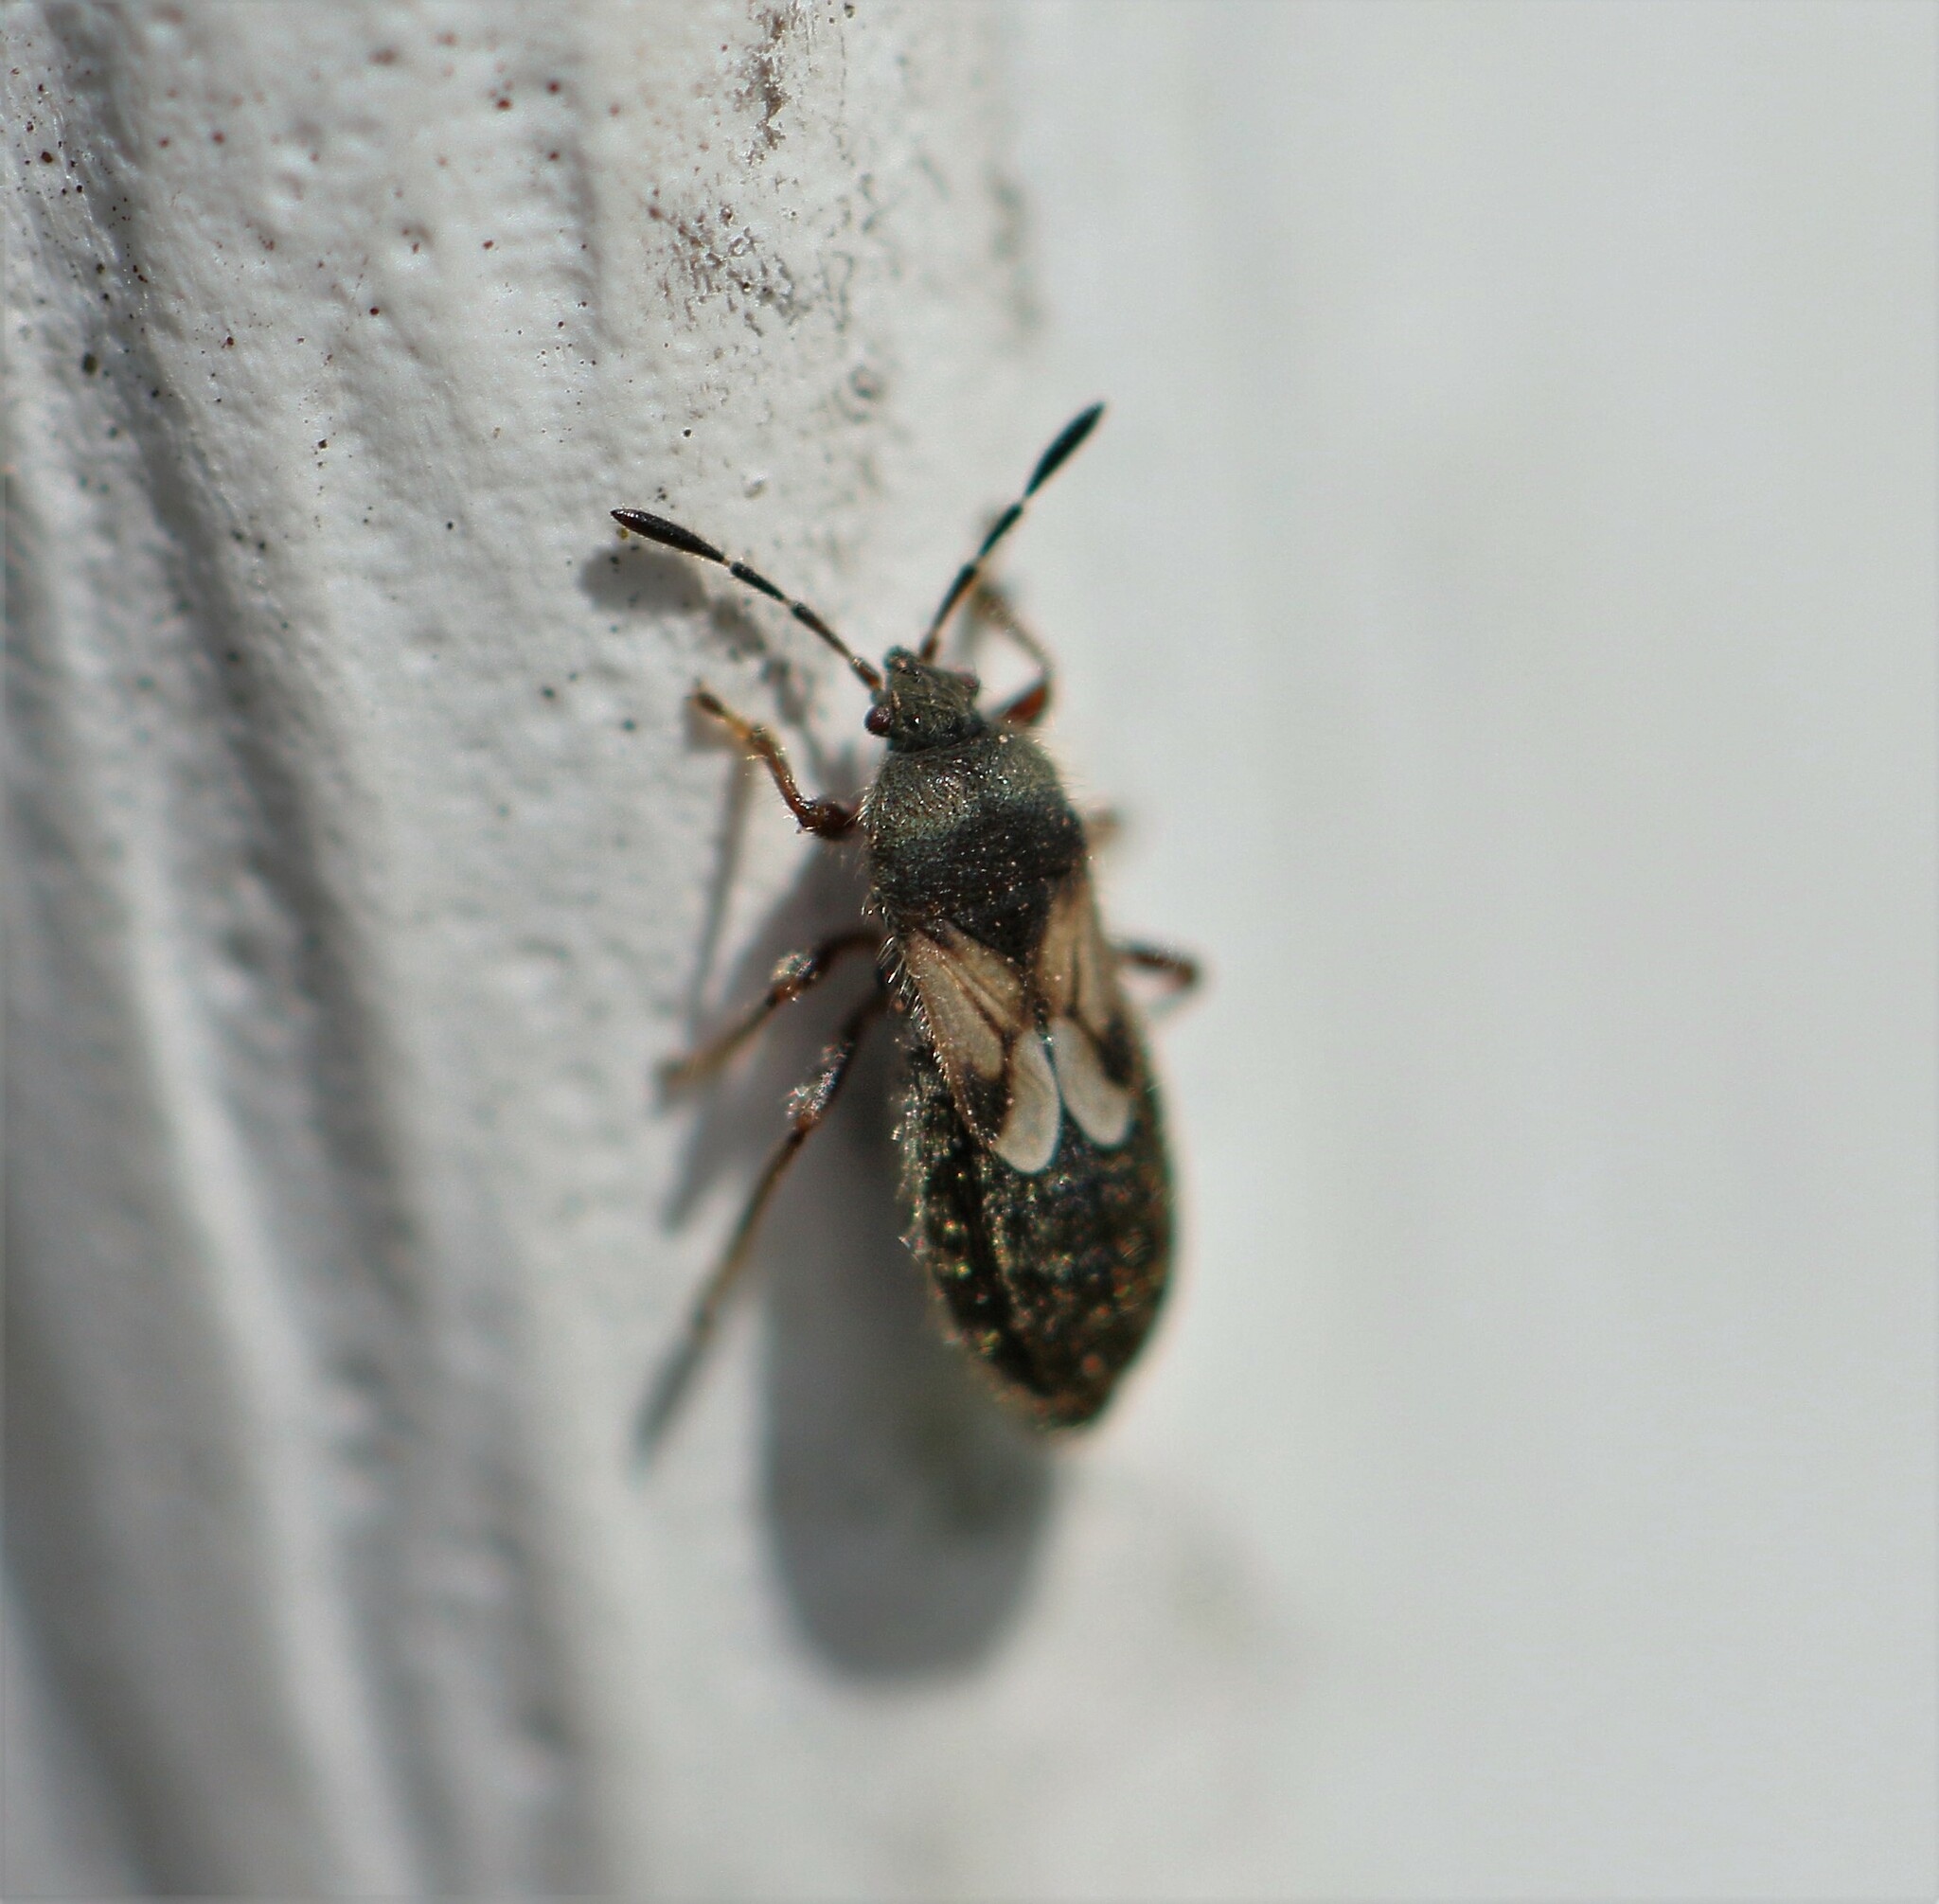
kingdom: Animalia
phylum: Arthropoda
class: Insecta
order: Hemiptera
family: Blissidae
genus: Blissus
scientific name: Blissus leucopterus
